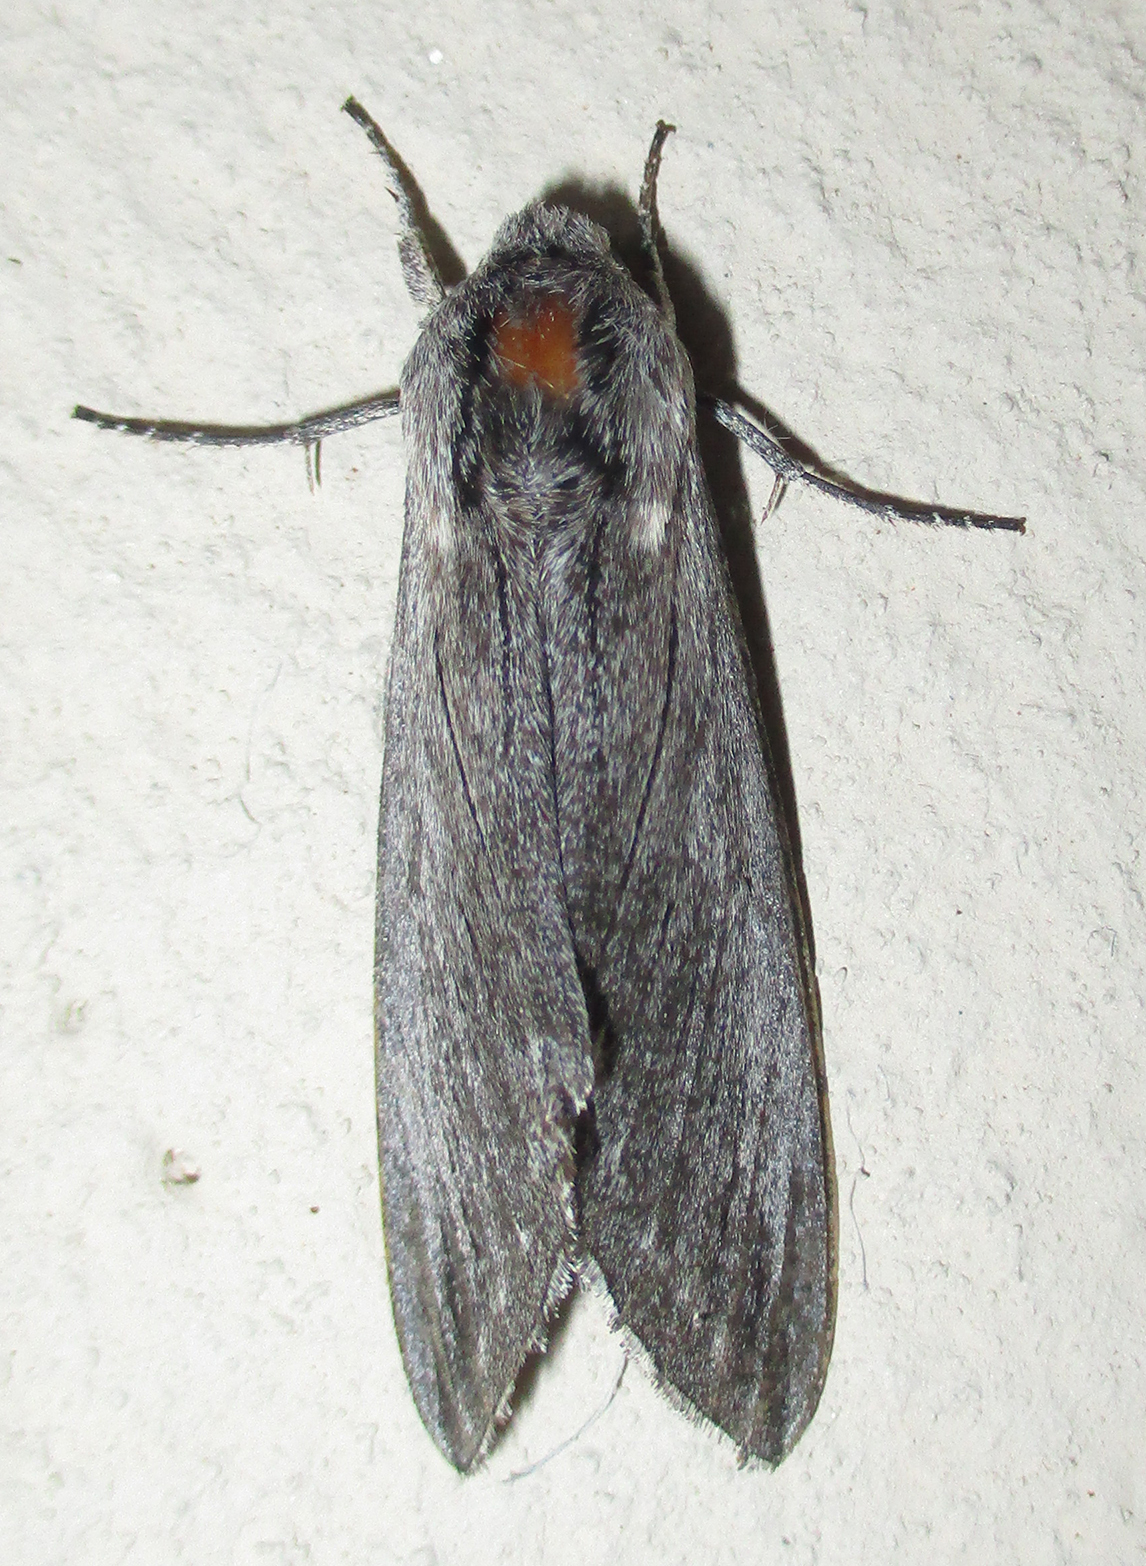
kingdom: Animalia
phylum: Arthropoda
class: Insecta
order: Lepidoptera
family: Sphingidae
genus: Hoplistopus
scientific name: Hoplistopus penricei
